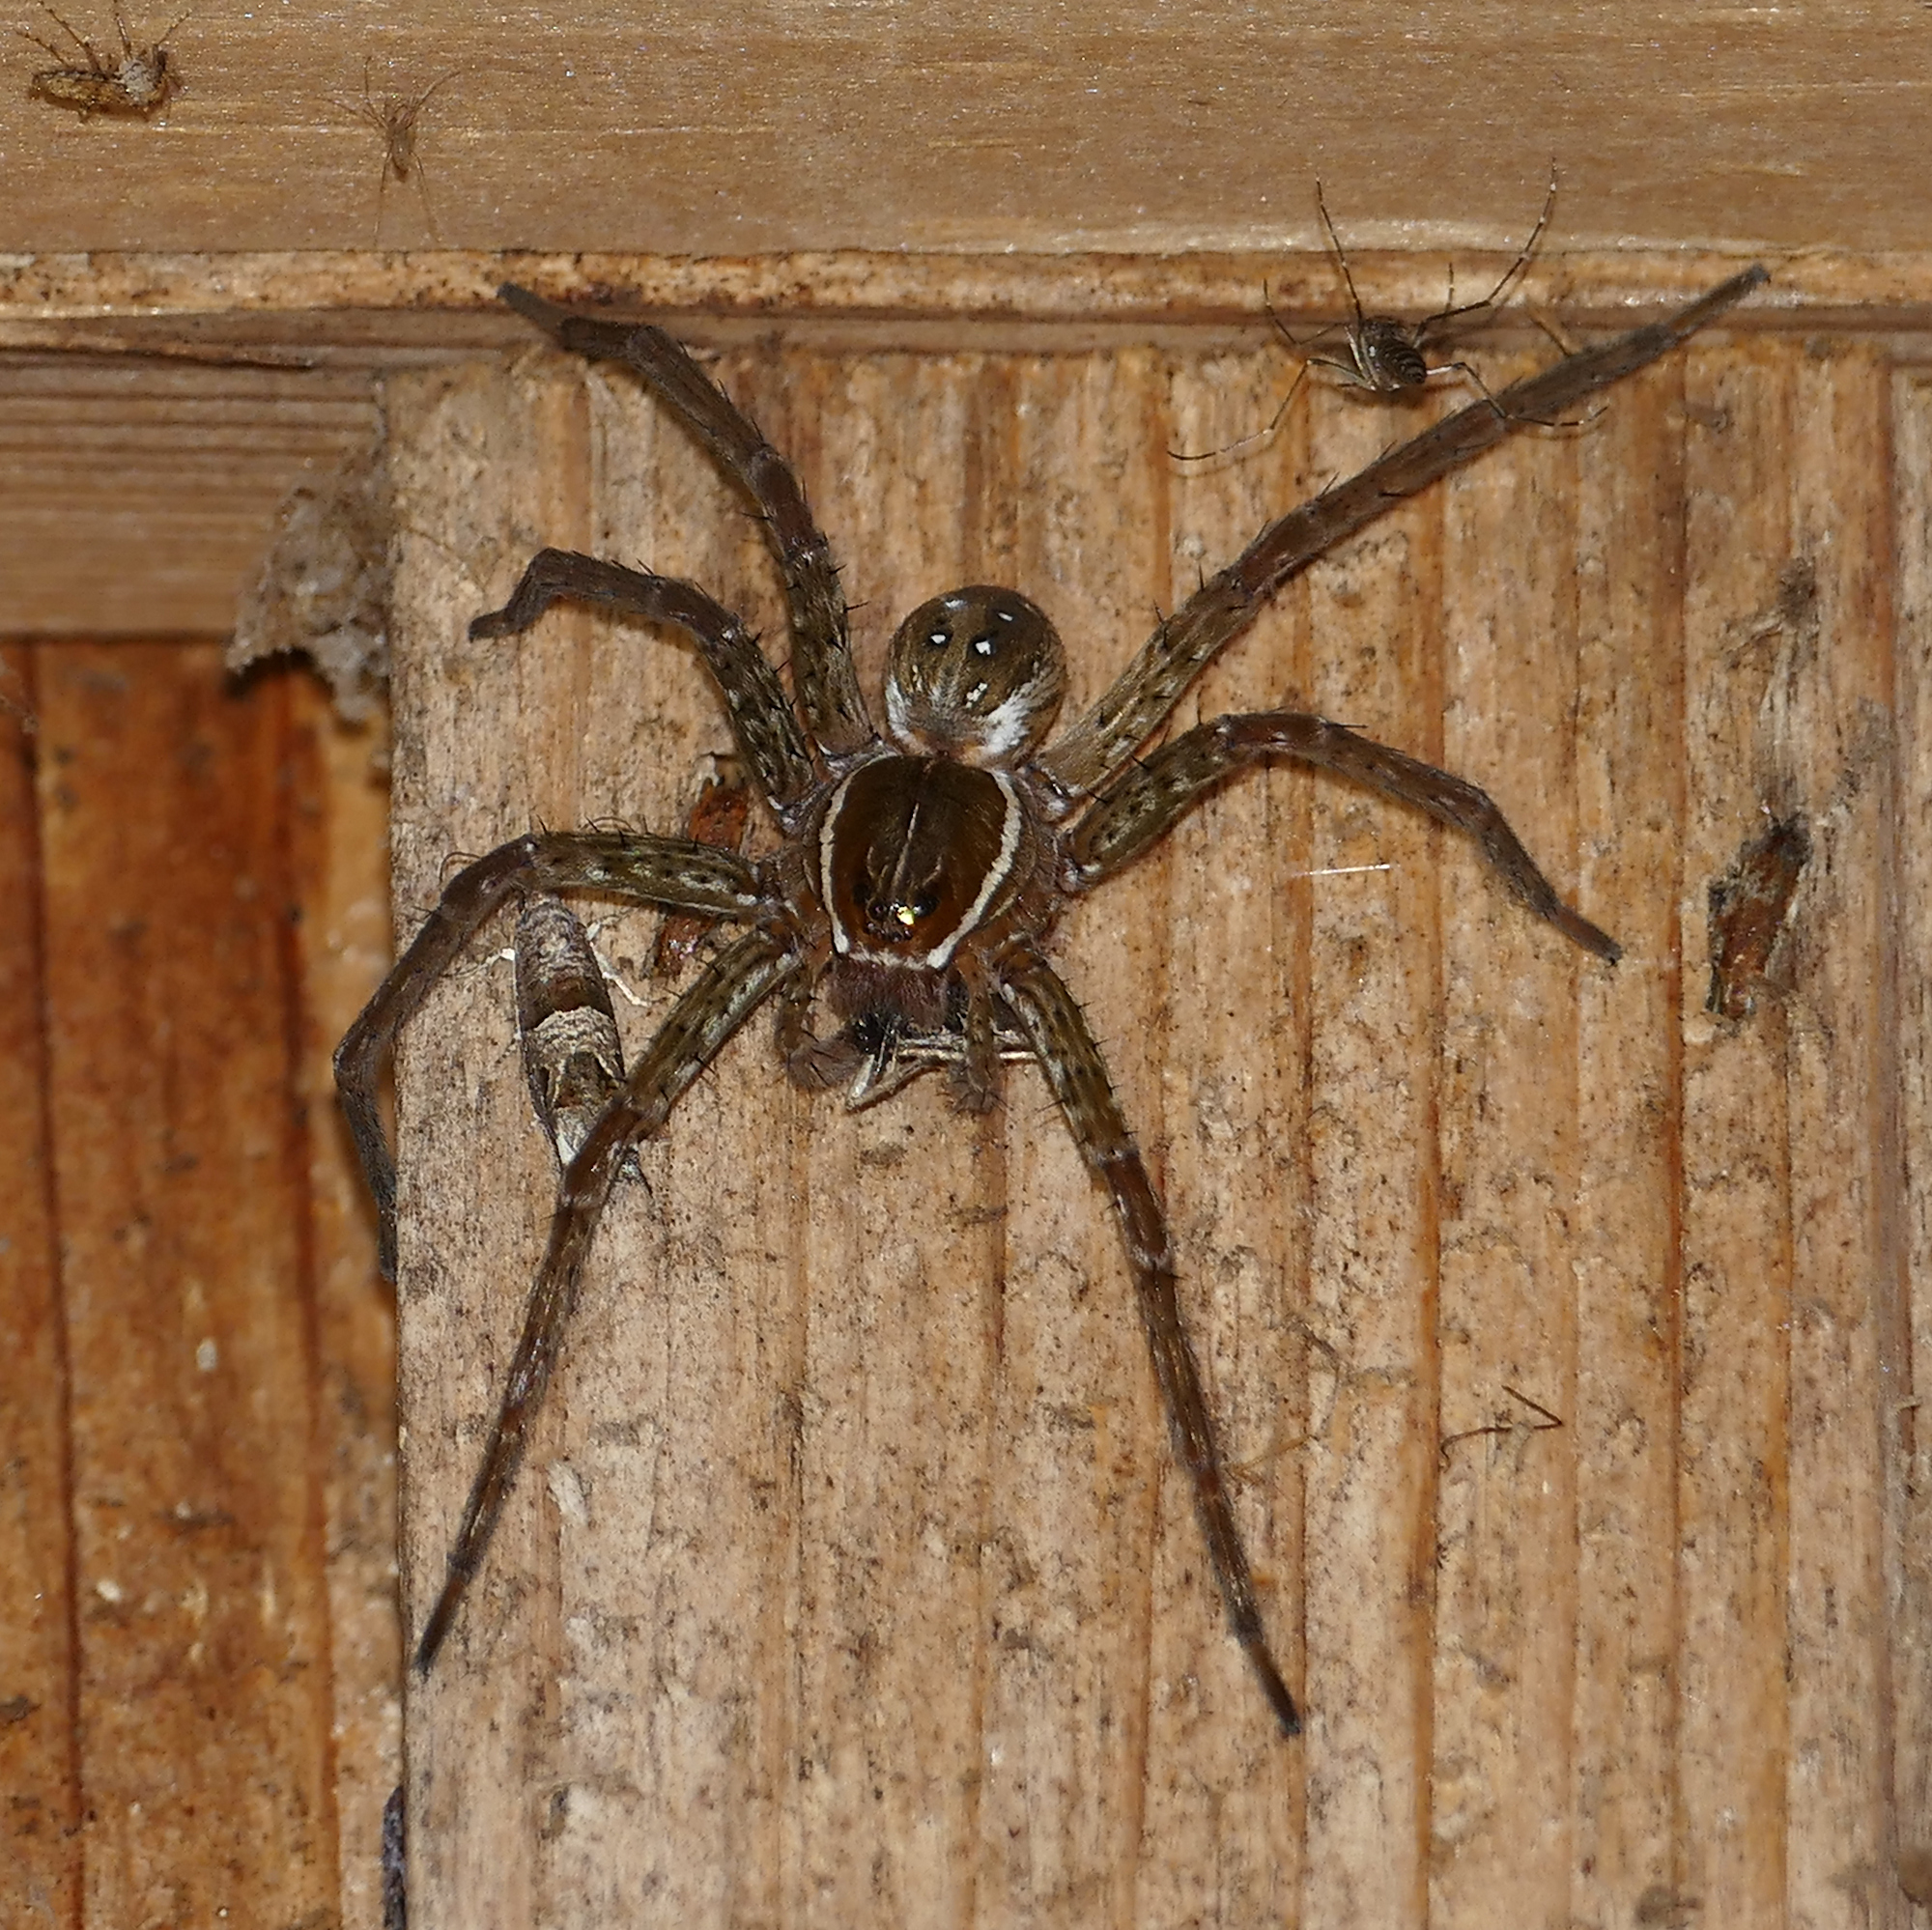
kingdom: Animalia
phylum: Arthropoda
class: Arachnida
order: Araneae
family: Pisauridae
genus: Dolomedes
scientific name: Dolomedes triton
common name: Six-spotted fishing spider
